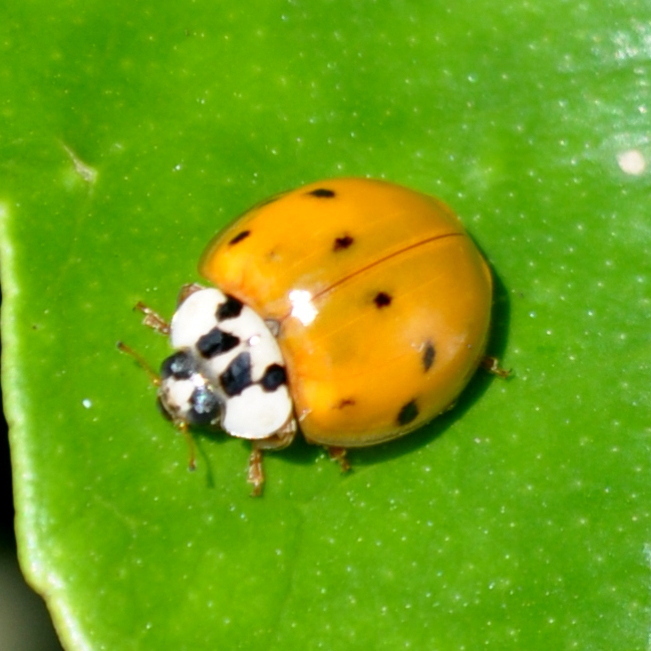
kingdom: Animalia
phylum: Arthropoda
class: Insecta
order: Coleoptera
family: Coccinellidae
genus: Harmonia
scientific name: Harmonia axyridis
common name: Harlequin ladybird
